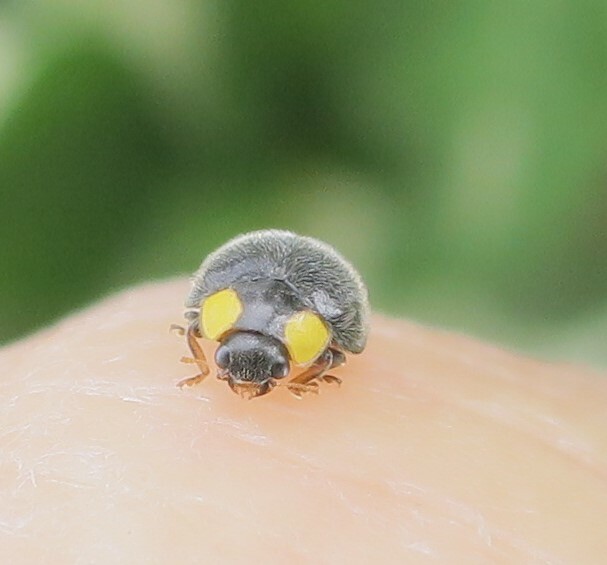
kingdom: Animalia
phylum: Arthropoda
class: Insecta
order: Coleoptera
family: Coccinellidae
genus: Scymnodes
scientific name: Scymnodes lividigaster
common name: Yellowshouldered lady beetle
